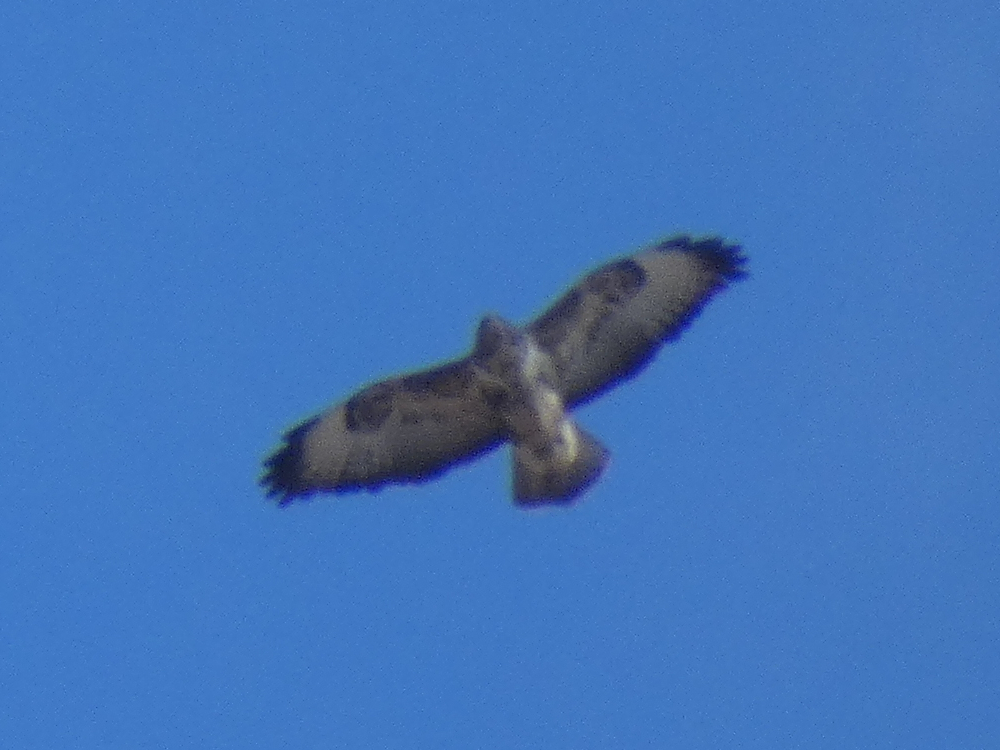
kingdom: Animalia
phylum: Chordata
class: Aves
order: Accipitriformes
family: Accipitridae
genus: Buteo
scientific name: Buteo buteo
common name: Common buzzard
